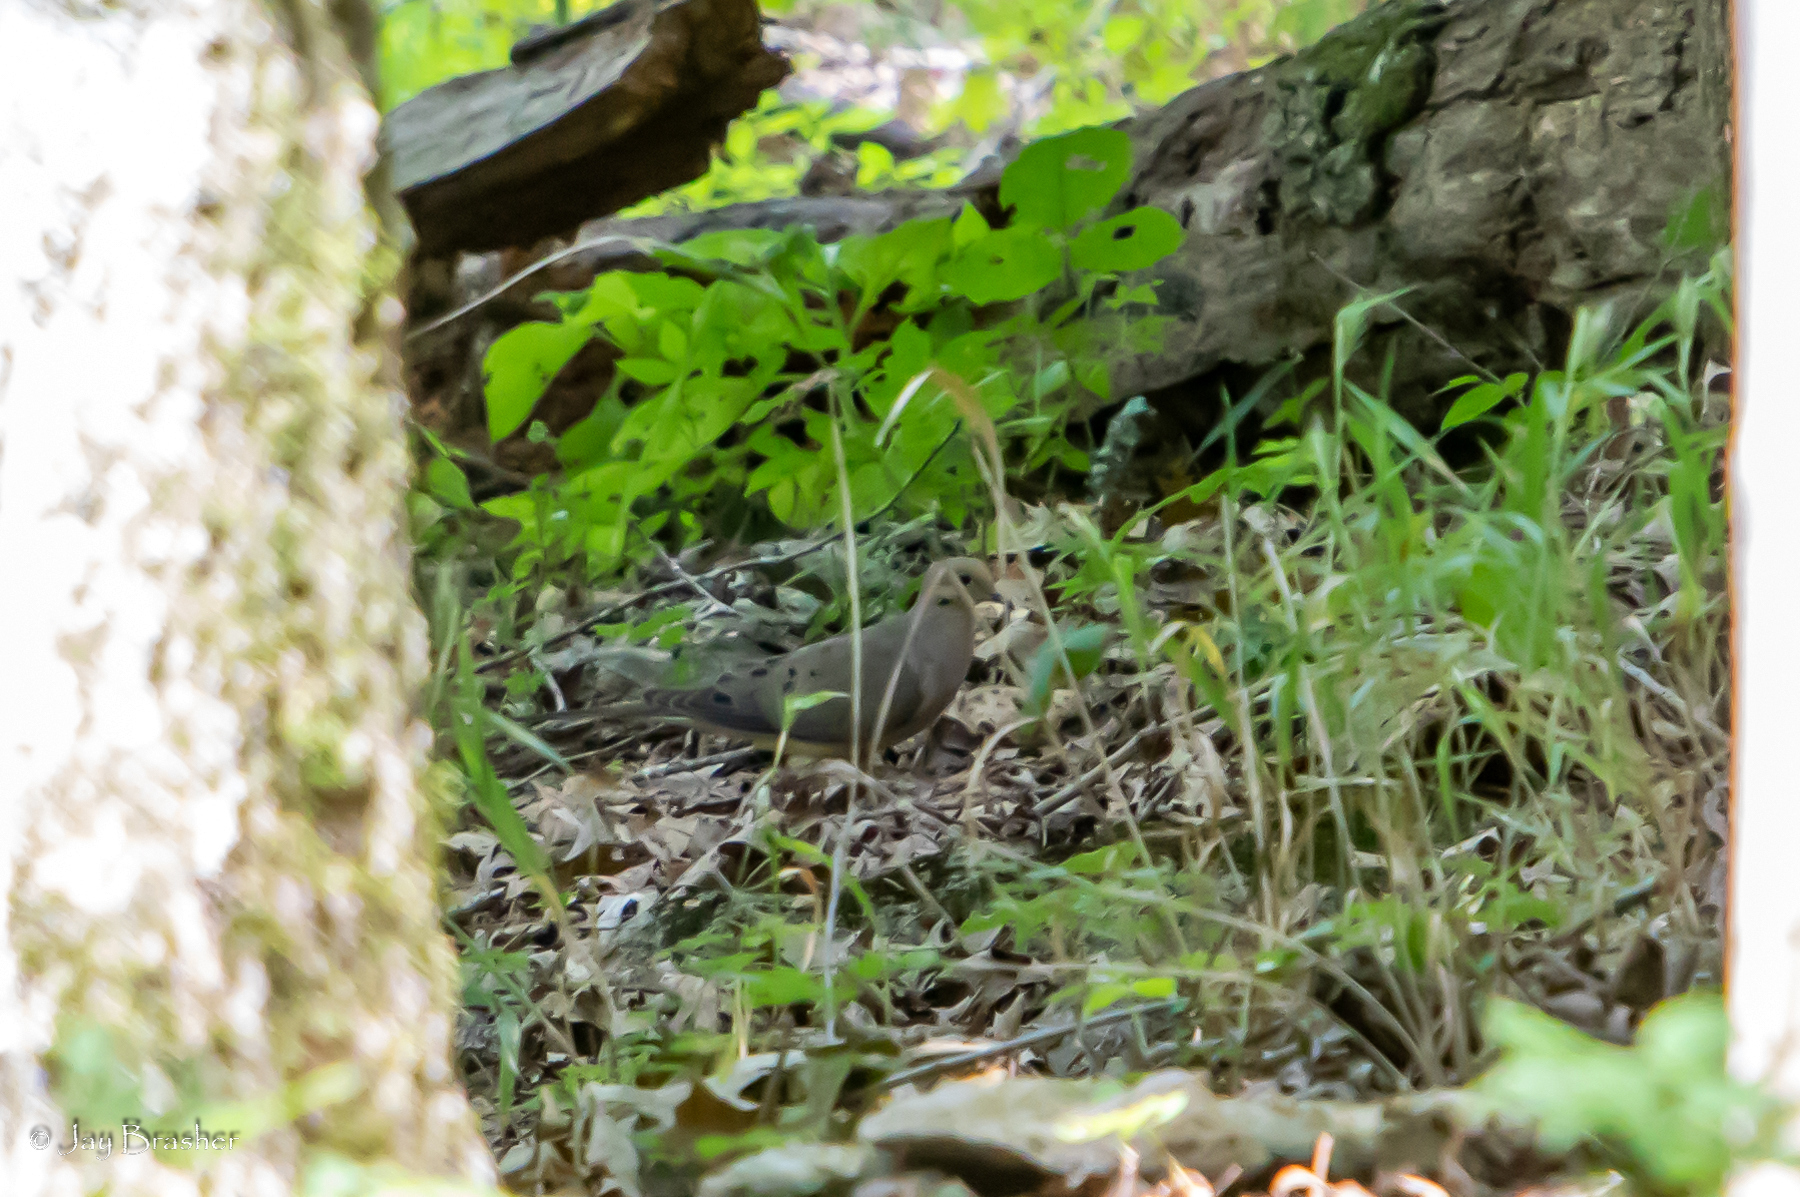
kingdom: Animalia
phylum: Chordata
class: Aves
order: Columbiformes
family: Columbidae
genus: Zenaida
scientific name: Zenaida macroura
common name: Mourning dove
